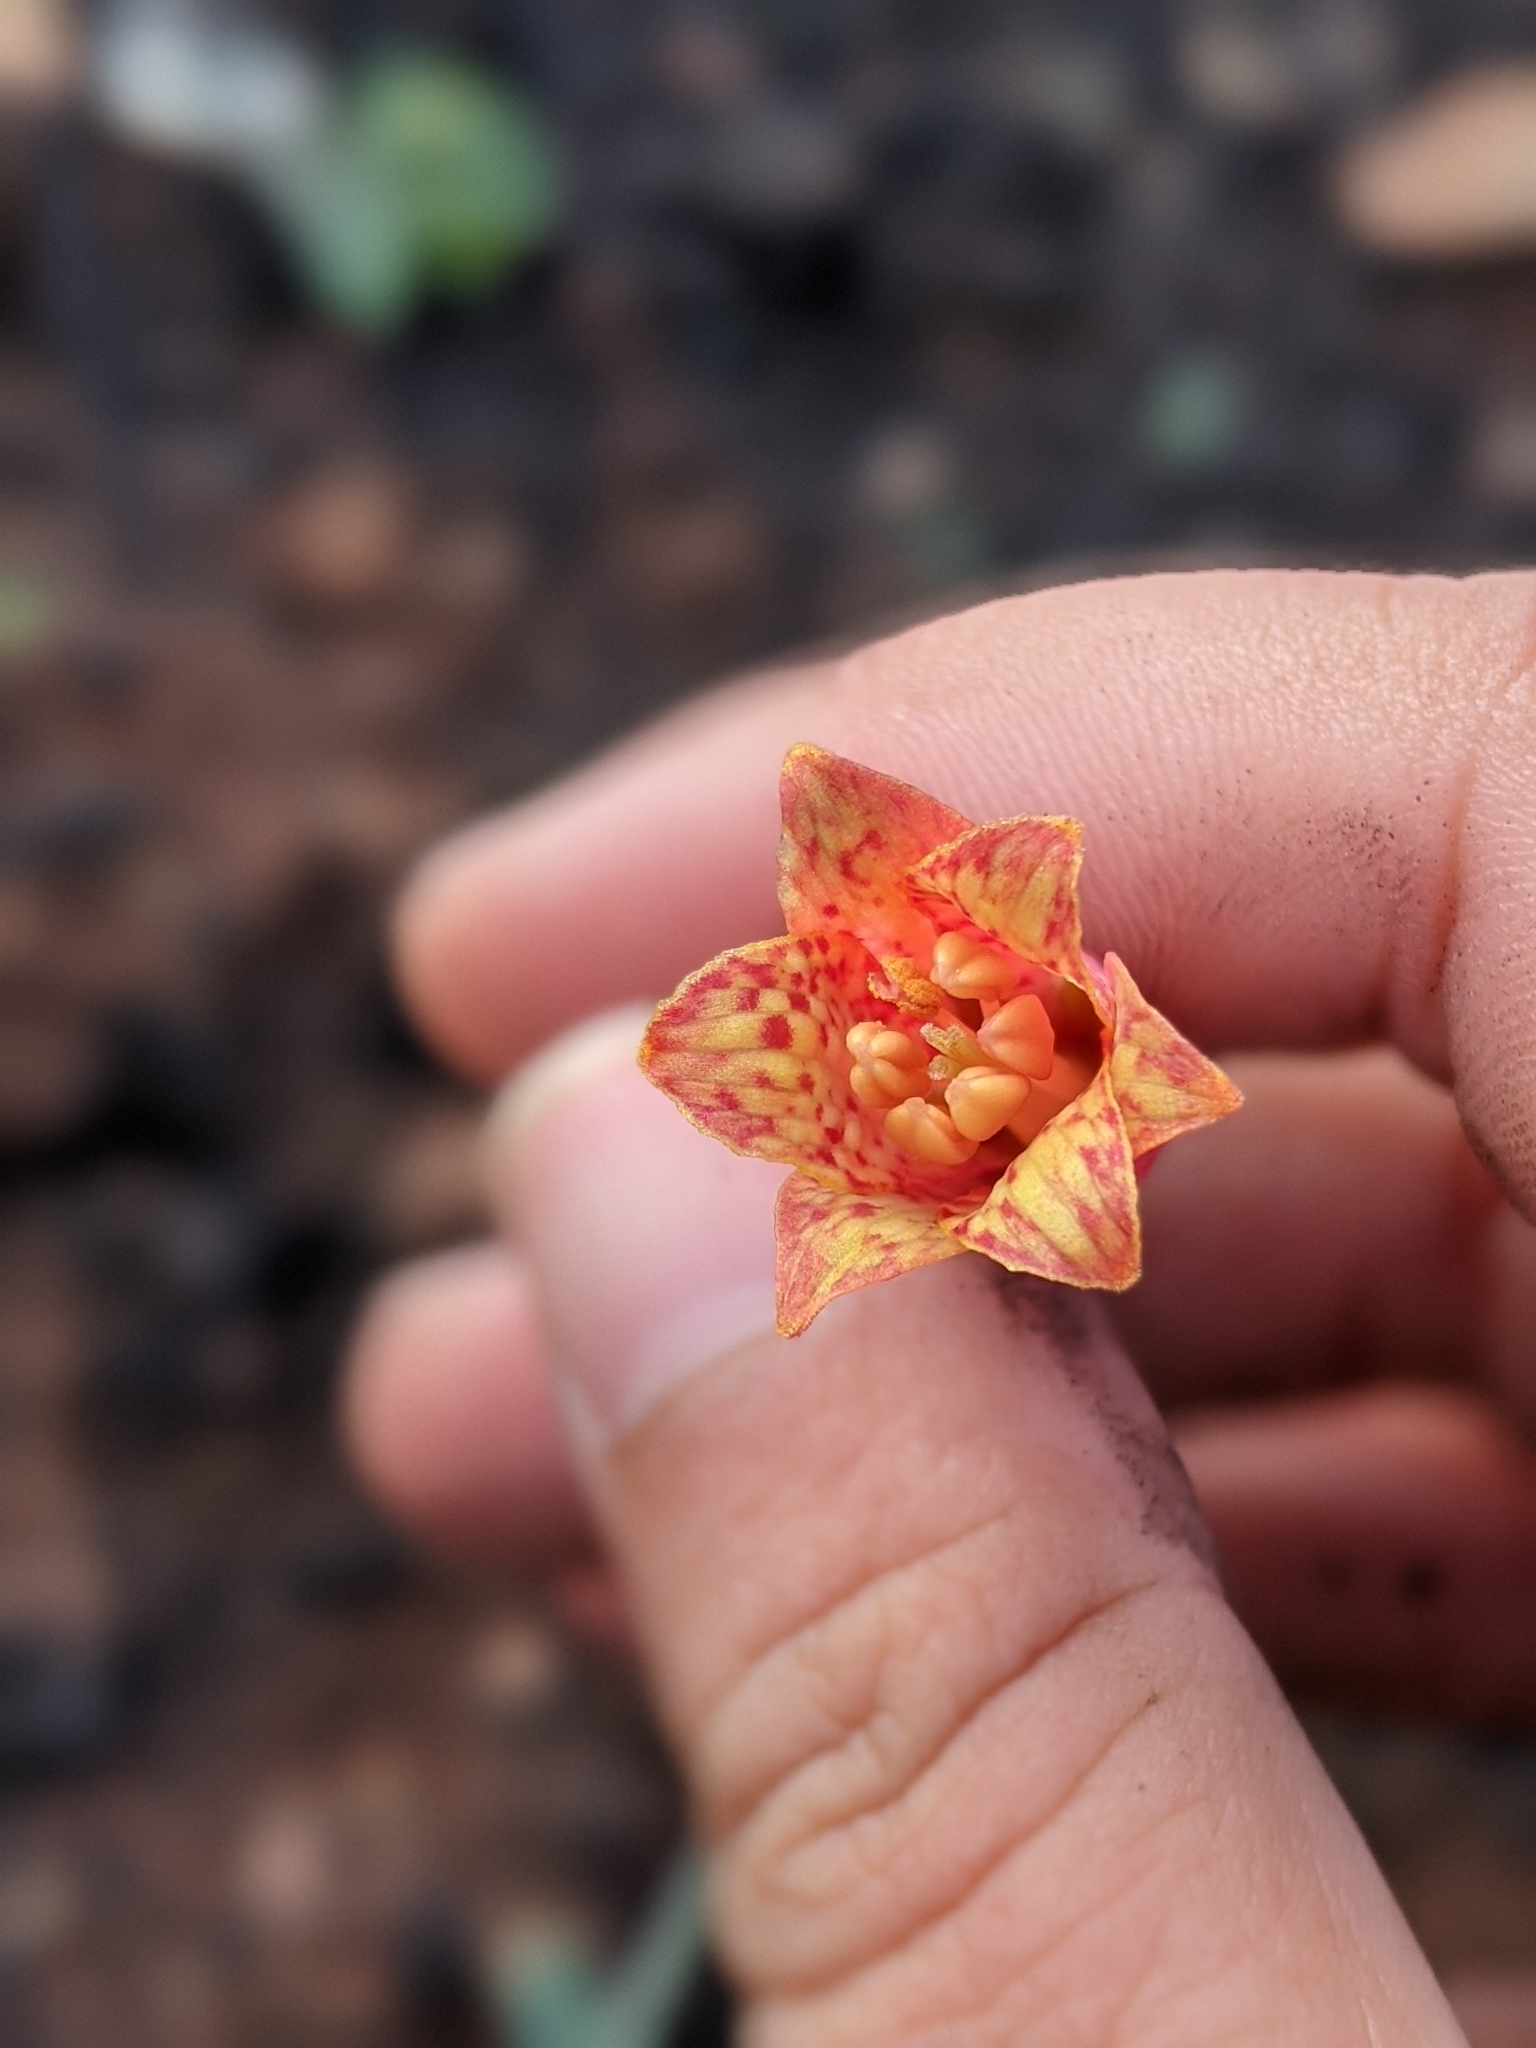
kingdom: Plantae
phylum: Tracheophyta
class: Liliopsida
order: Liliales
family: Liliaceae
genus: Fritillaria
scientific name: Fritillaria recurva
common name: Scarlet fritillary
